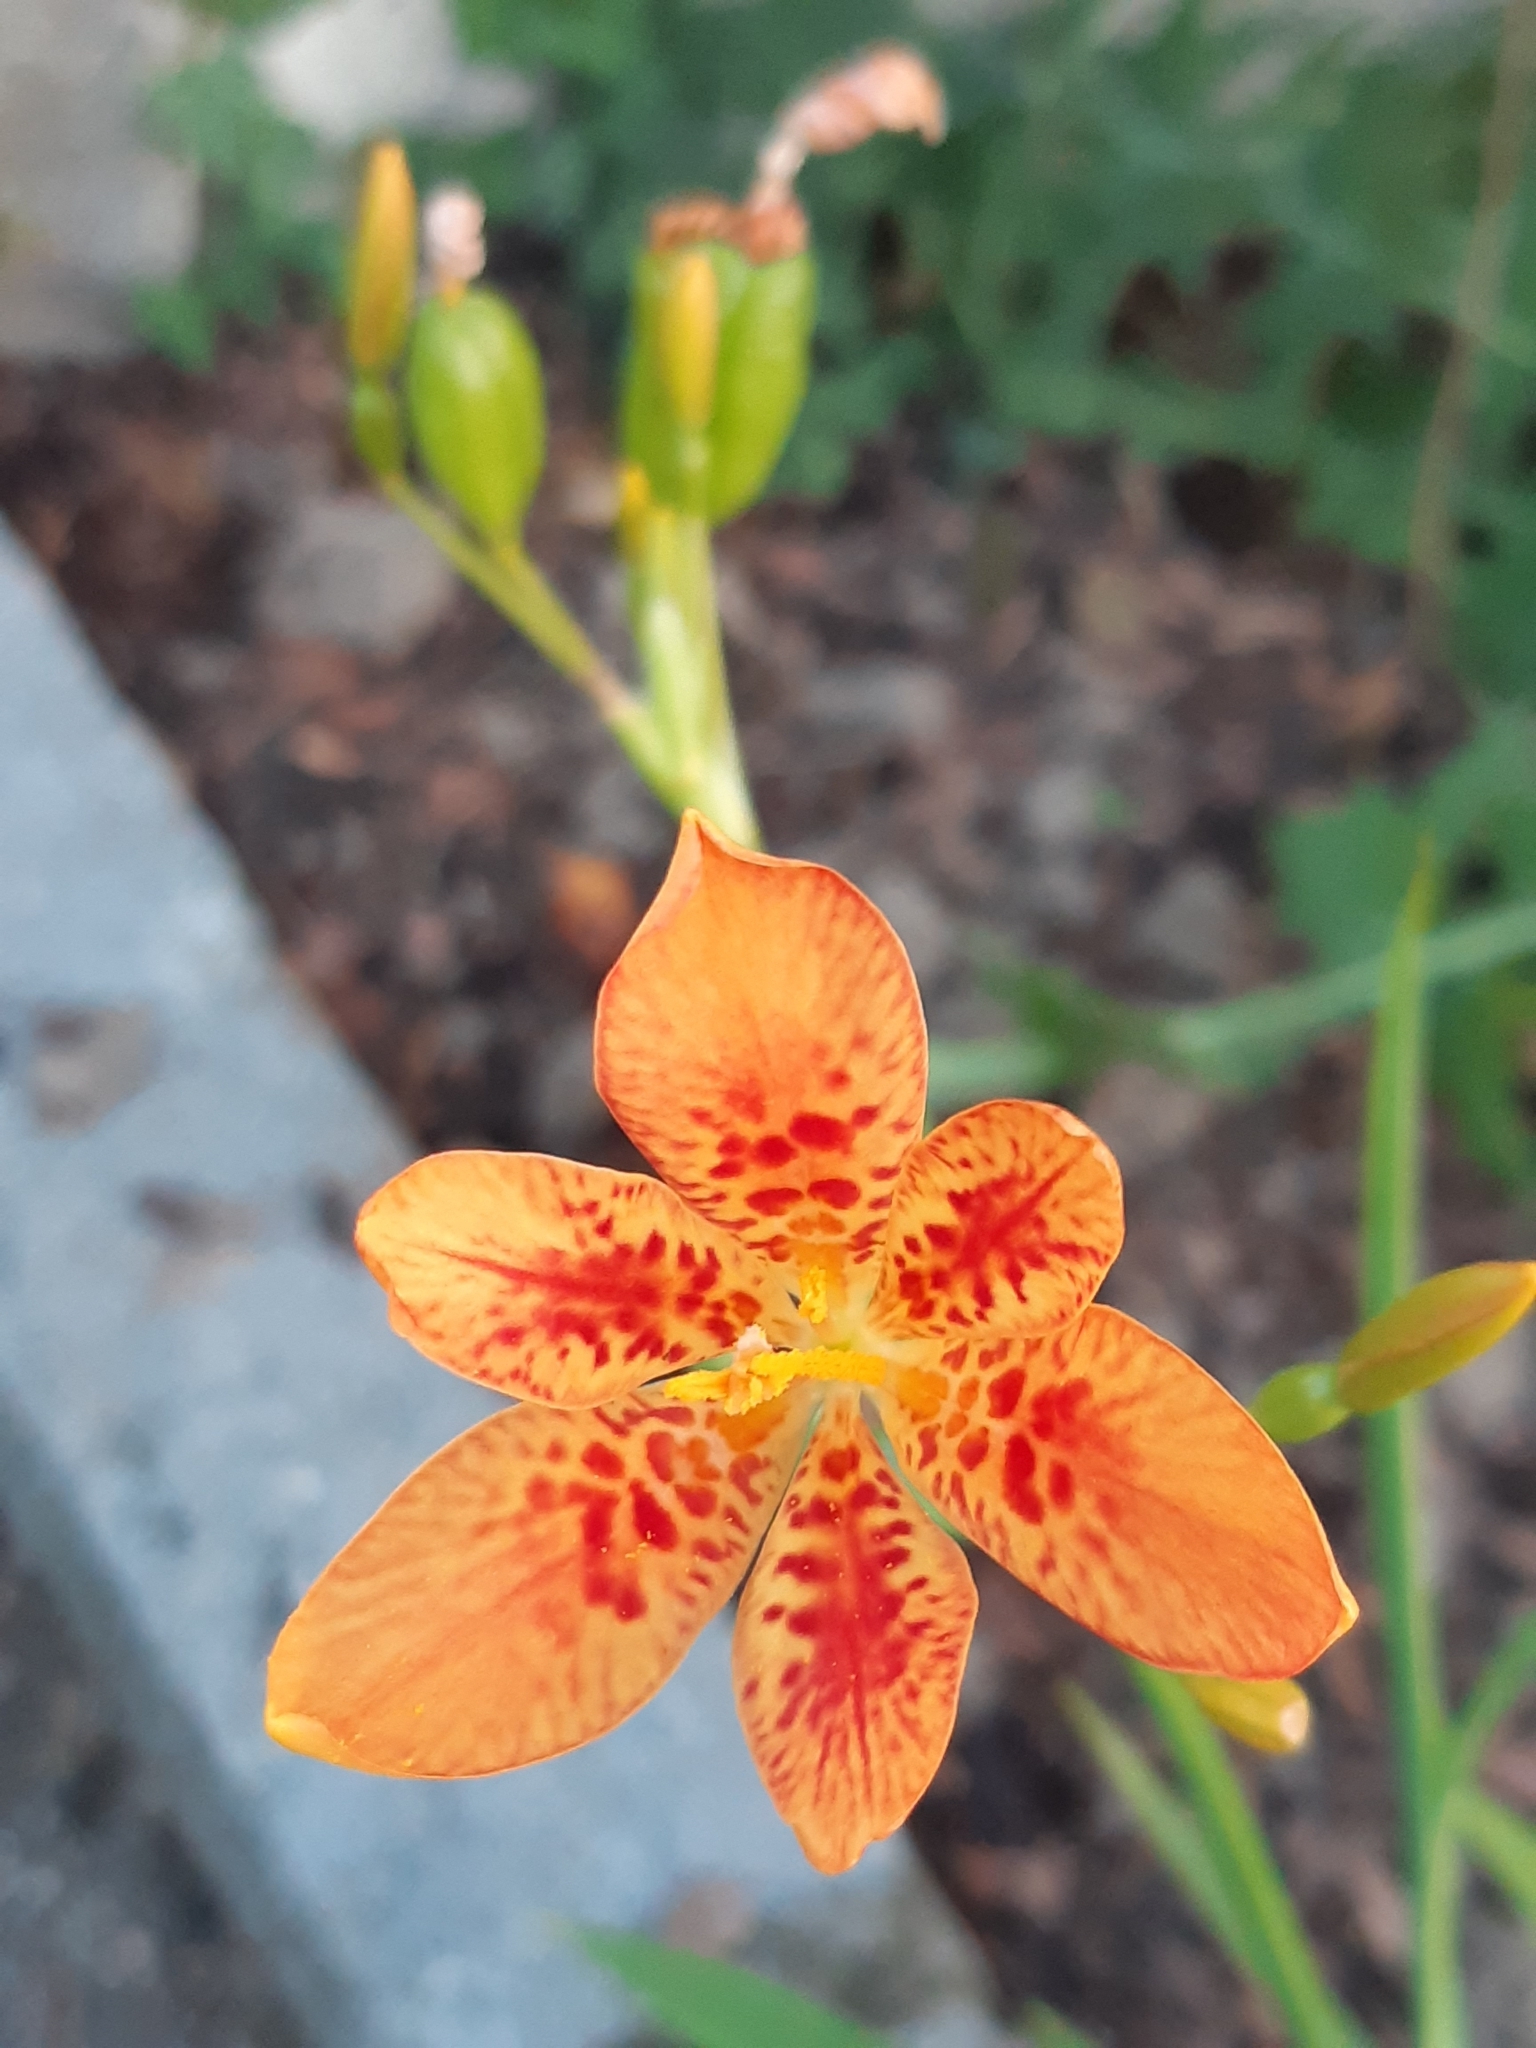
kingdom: Plantae
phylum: Tracheophyta
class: Liliopsida
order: Asparagales
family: Iridaceae
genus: Iris
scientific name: Iris domestica
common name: Belamcanda
